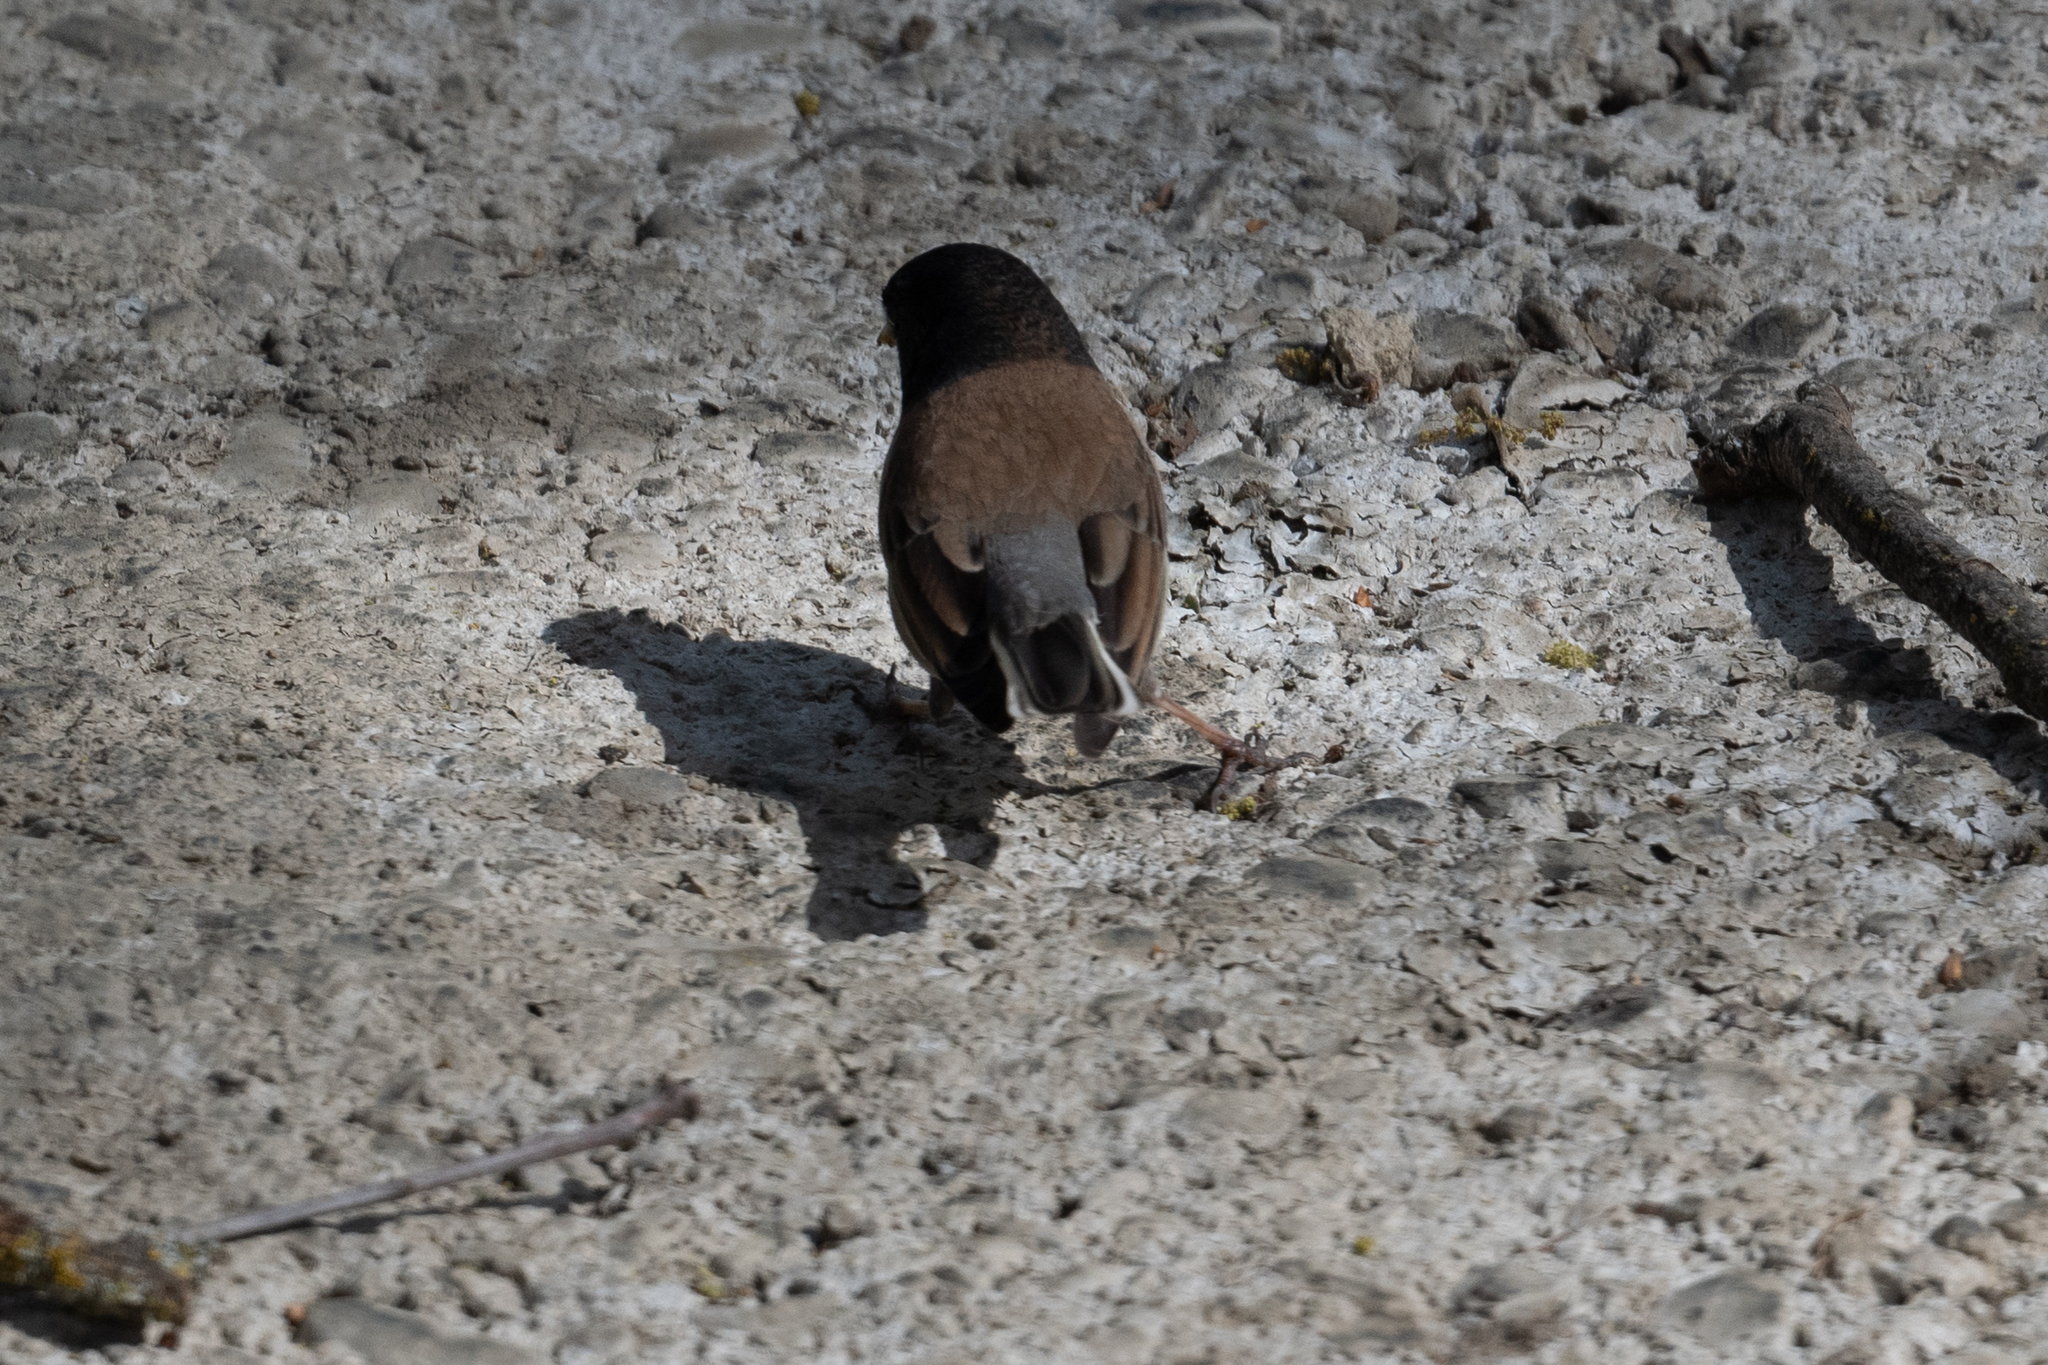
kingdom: Animalia
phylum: Chordata
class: Aves
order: Passeriformes
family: Passerellidae
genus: Junco
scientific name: Junco hyemalis
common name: Dark-eyed junco
